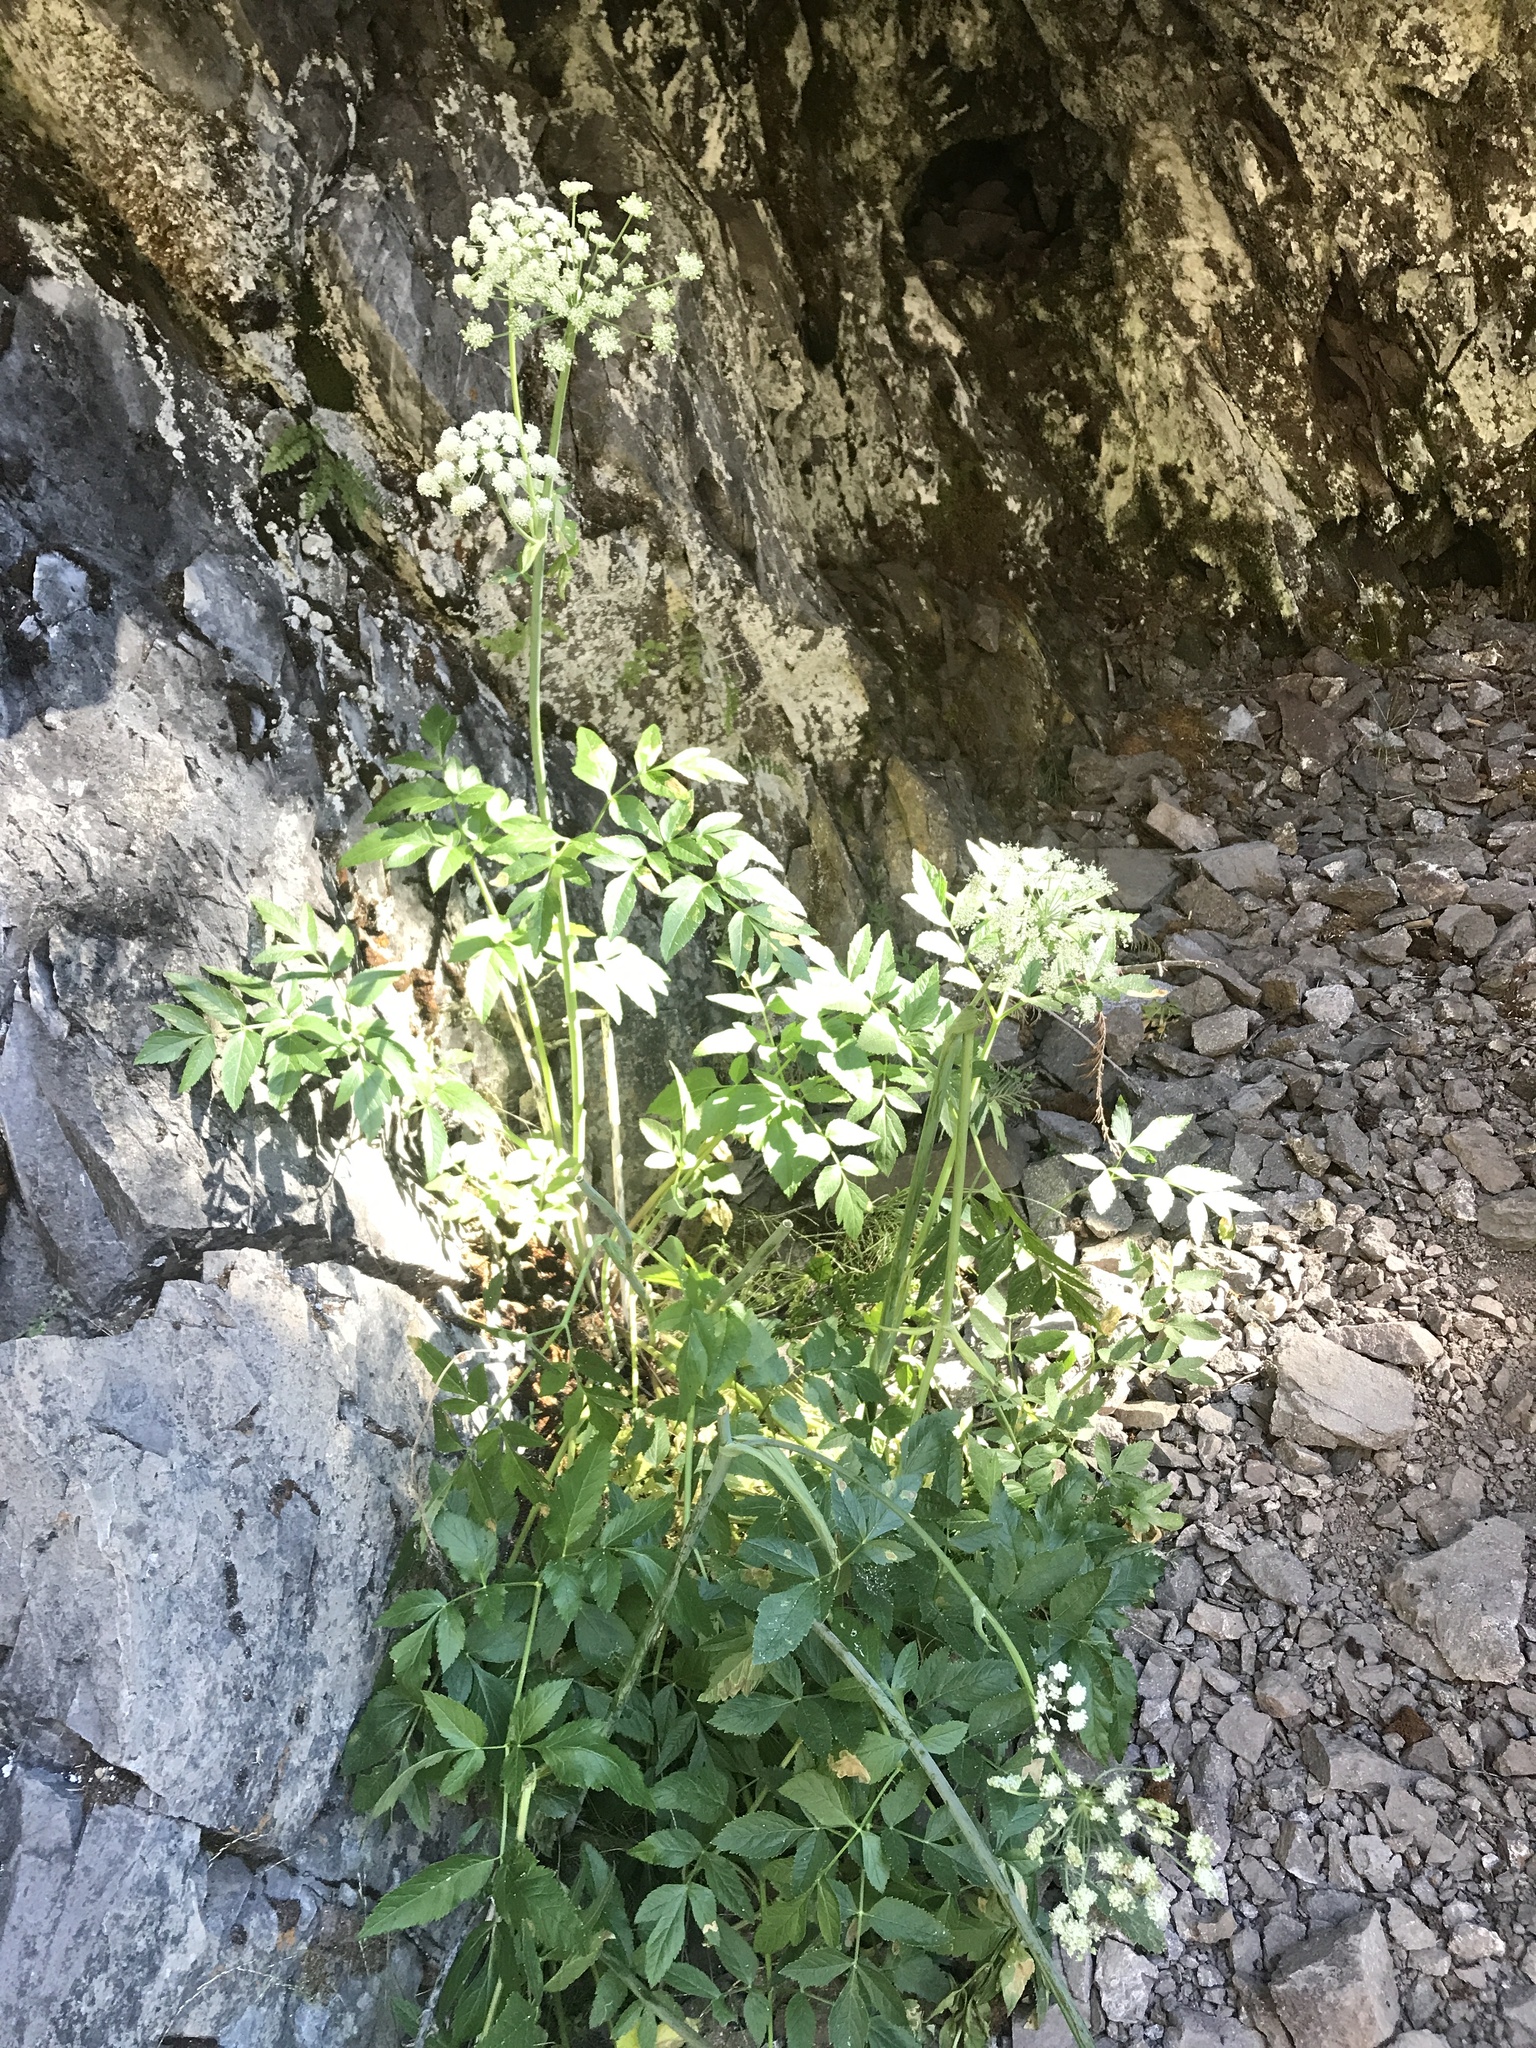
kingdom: Plantae
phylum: Tracheophyta
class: Magnoliopsida
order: Apiales
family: Apiaceae
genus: Angelica
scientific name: Angelica arguta
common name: Lyall's angelica
